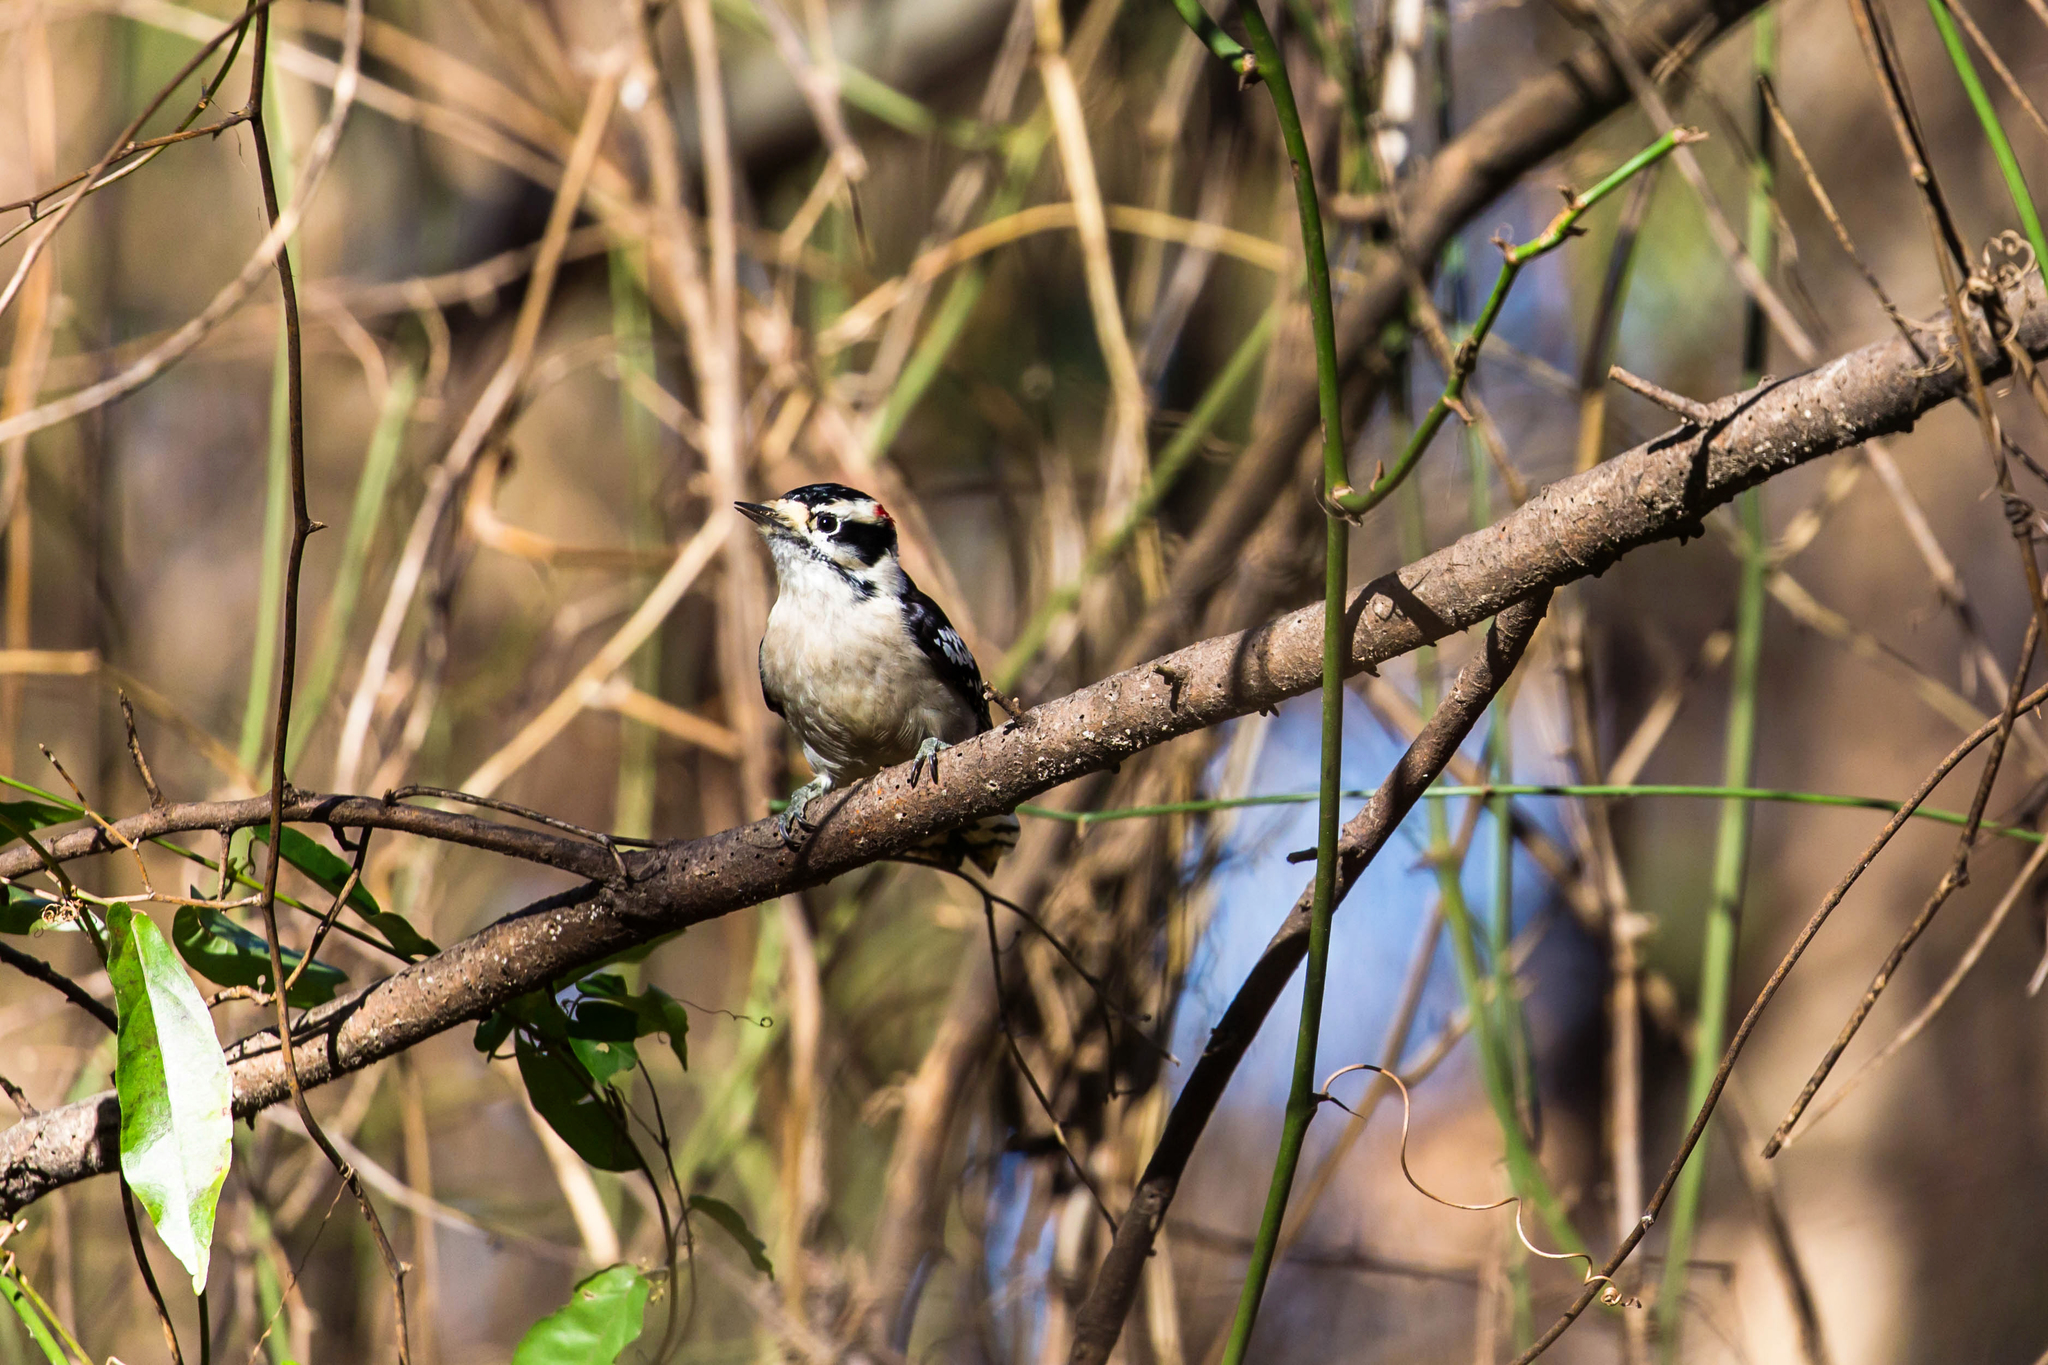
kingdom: Animalia
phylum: Chordata
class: Aves
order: Piciformes
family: Picidae
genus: Dryobates
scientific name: Dryobates pubescens
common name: Downy woodpecker
